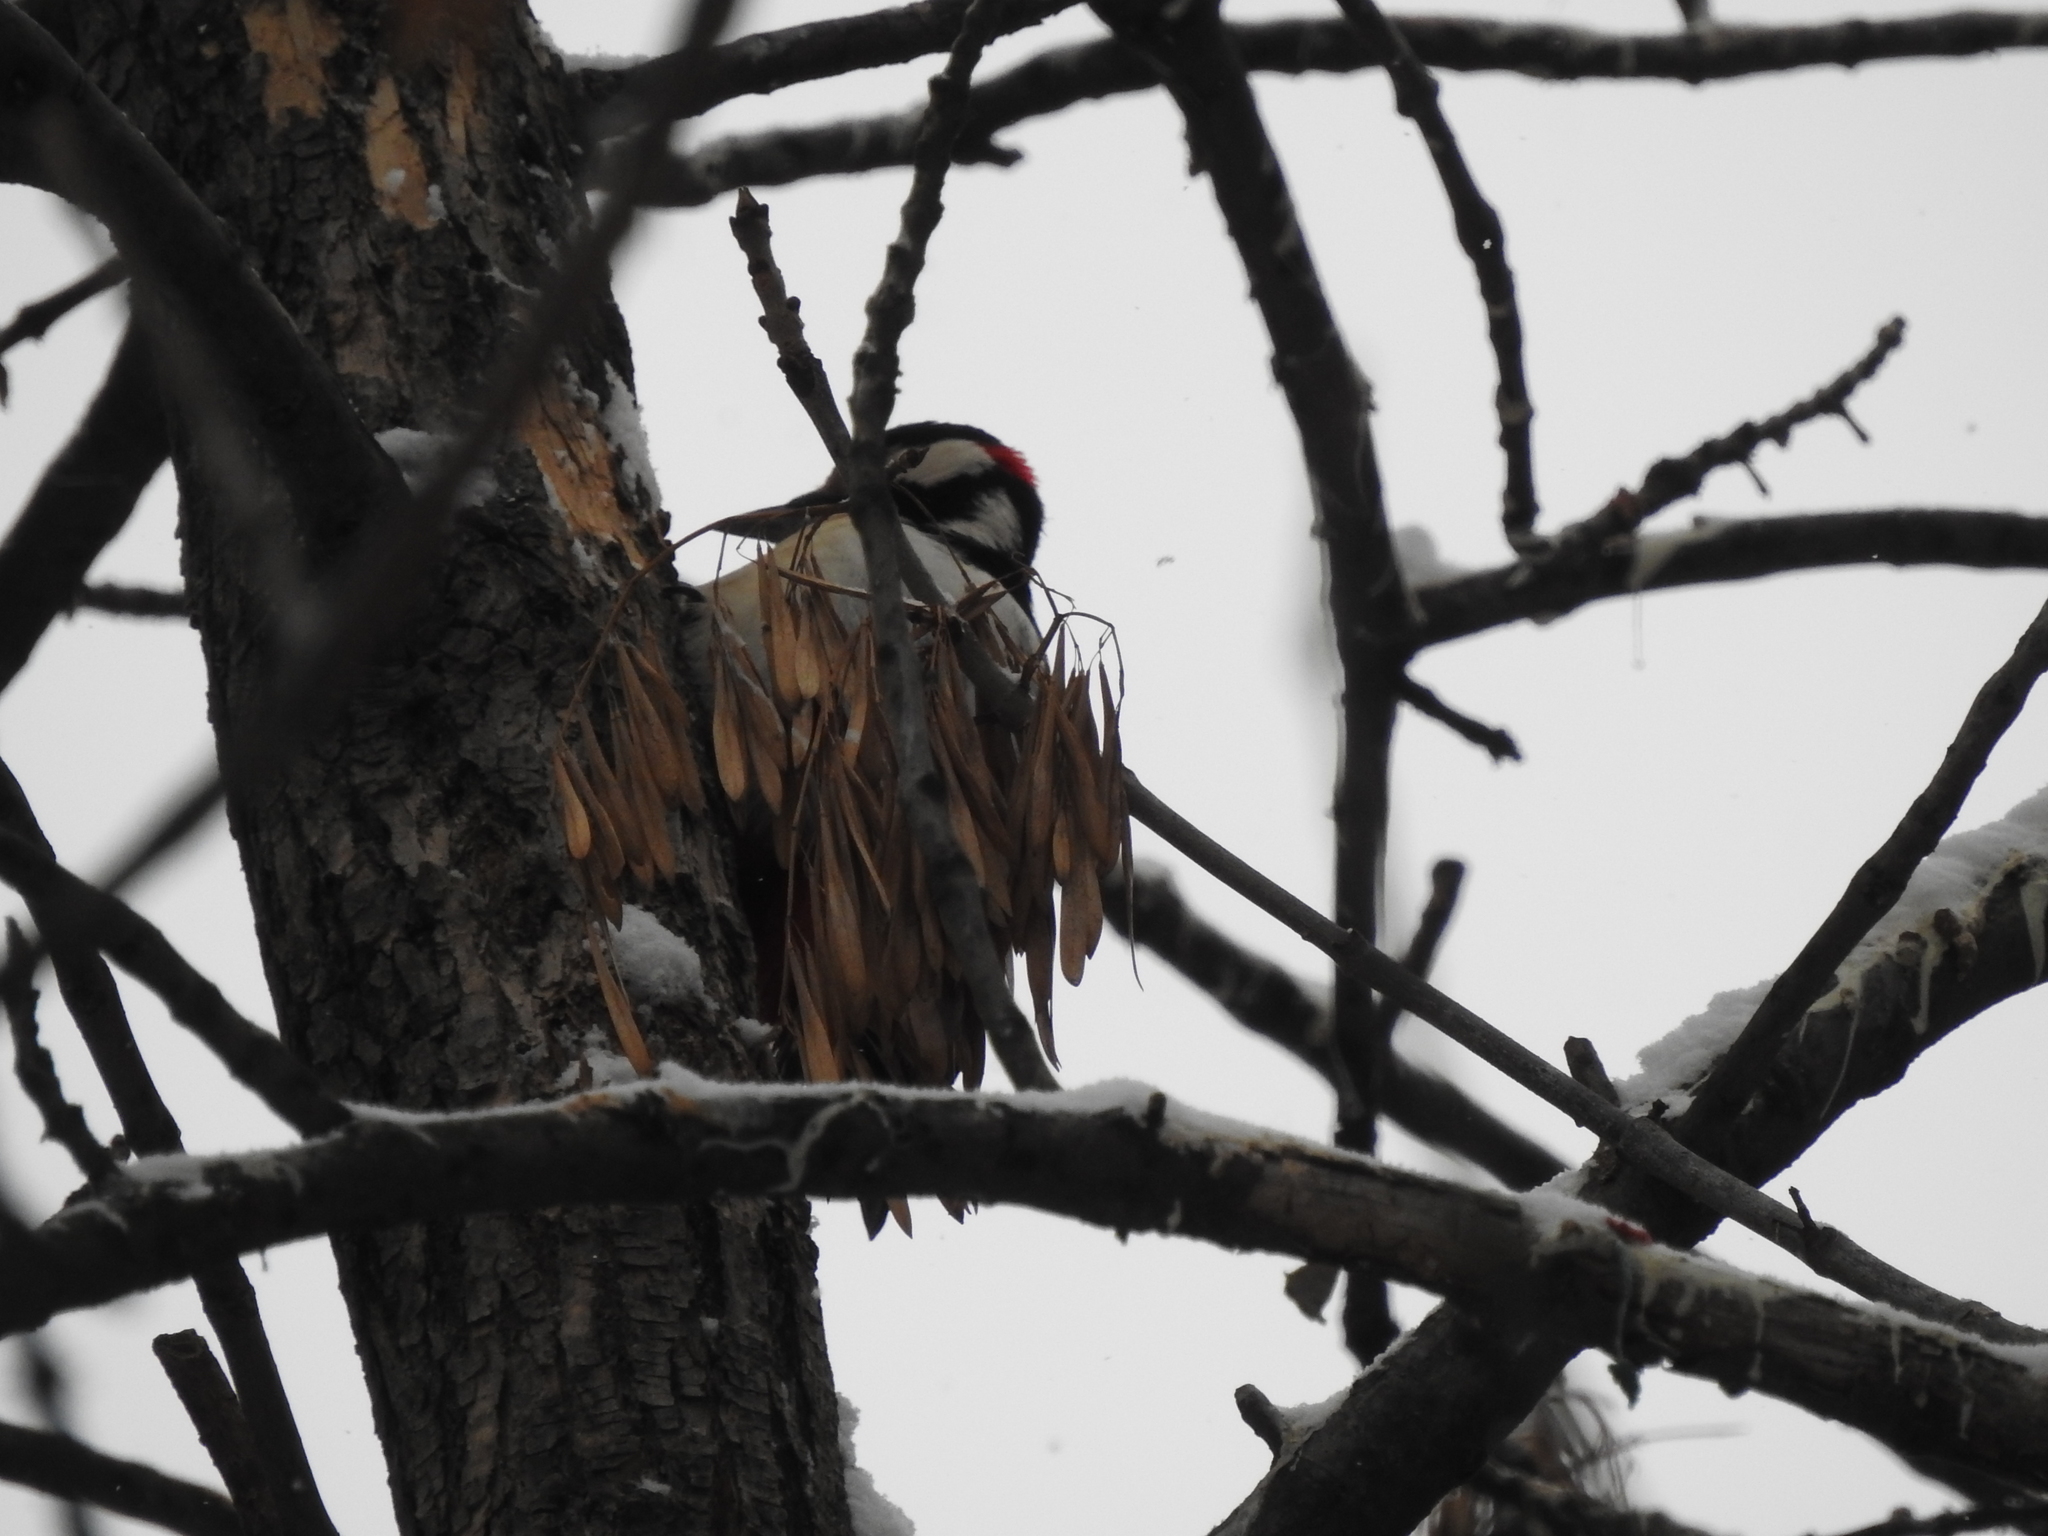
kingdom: Animalia
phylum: Chordata
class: Aves
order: Piciformes
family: Picidae
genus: Dendrocopos
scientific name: Dendrocopos major
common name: Great spotted woodpecker
